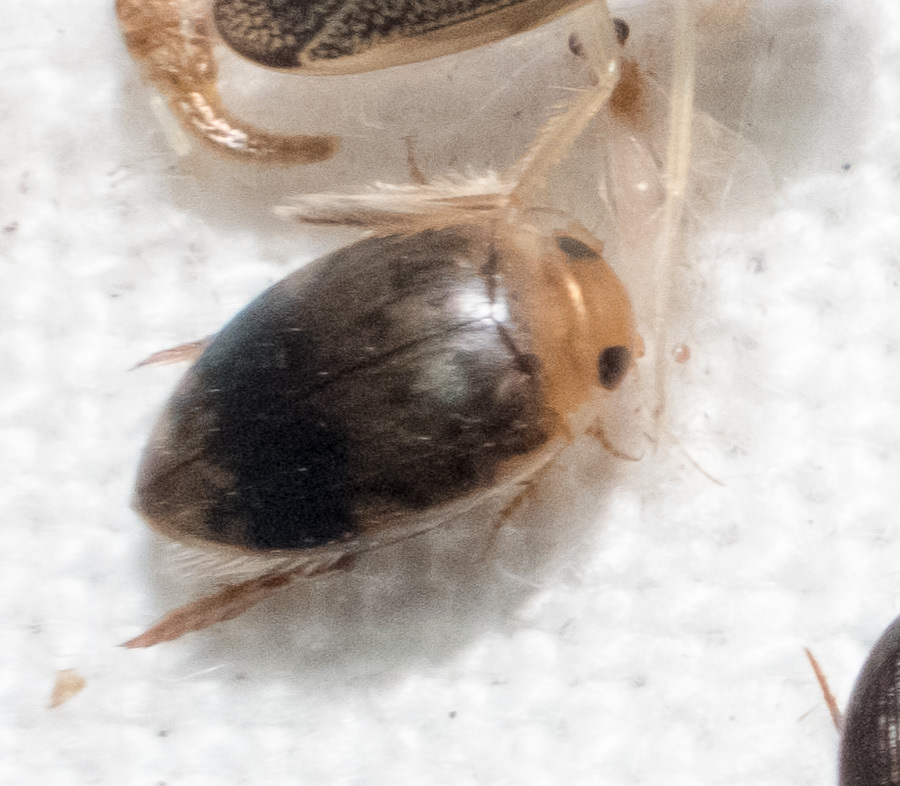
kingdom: Animalia
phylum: Arthropoda
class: Insecta
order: Coleoptera
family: Dytiscidae
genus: Laccophilus
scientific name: Laccophilus fasciatus
